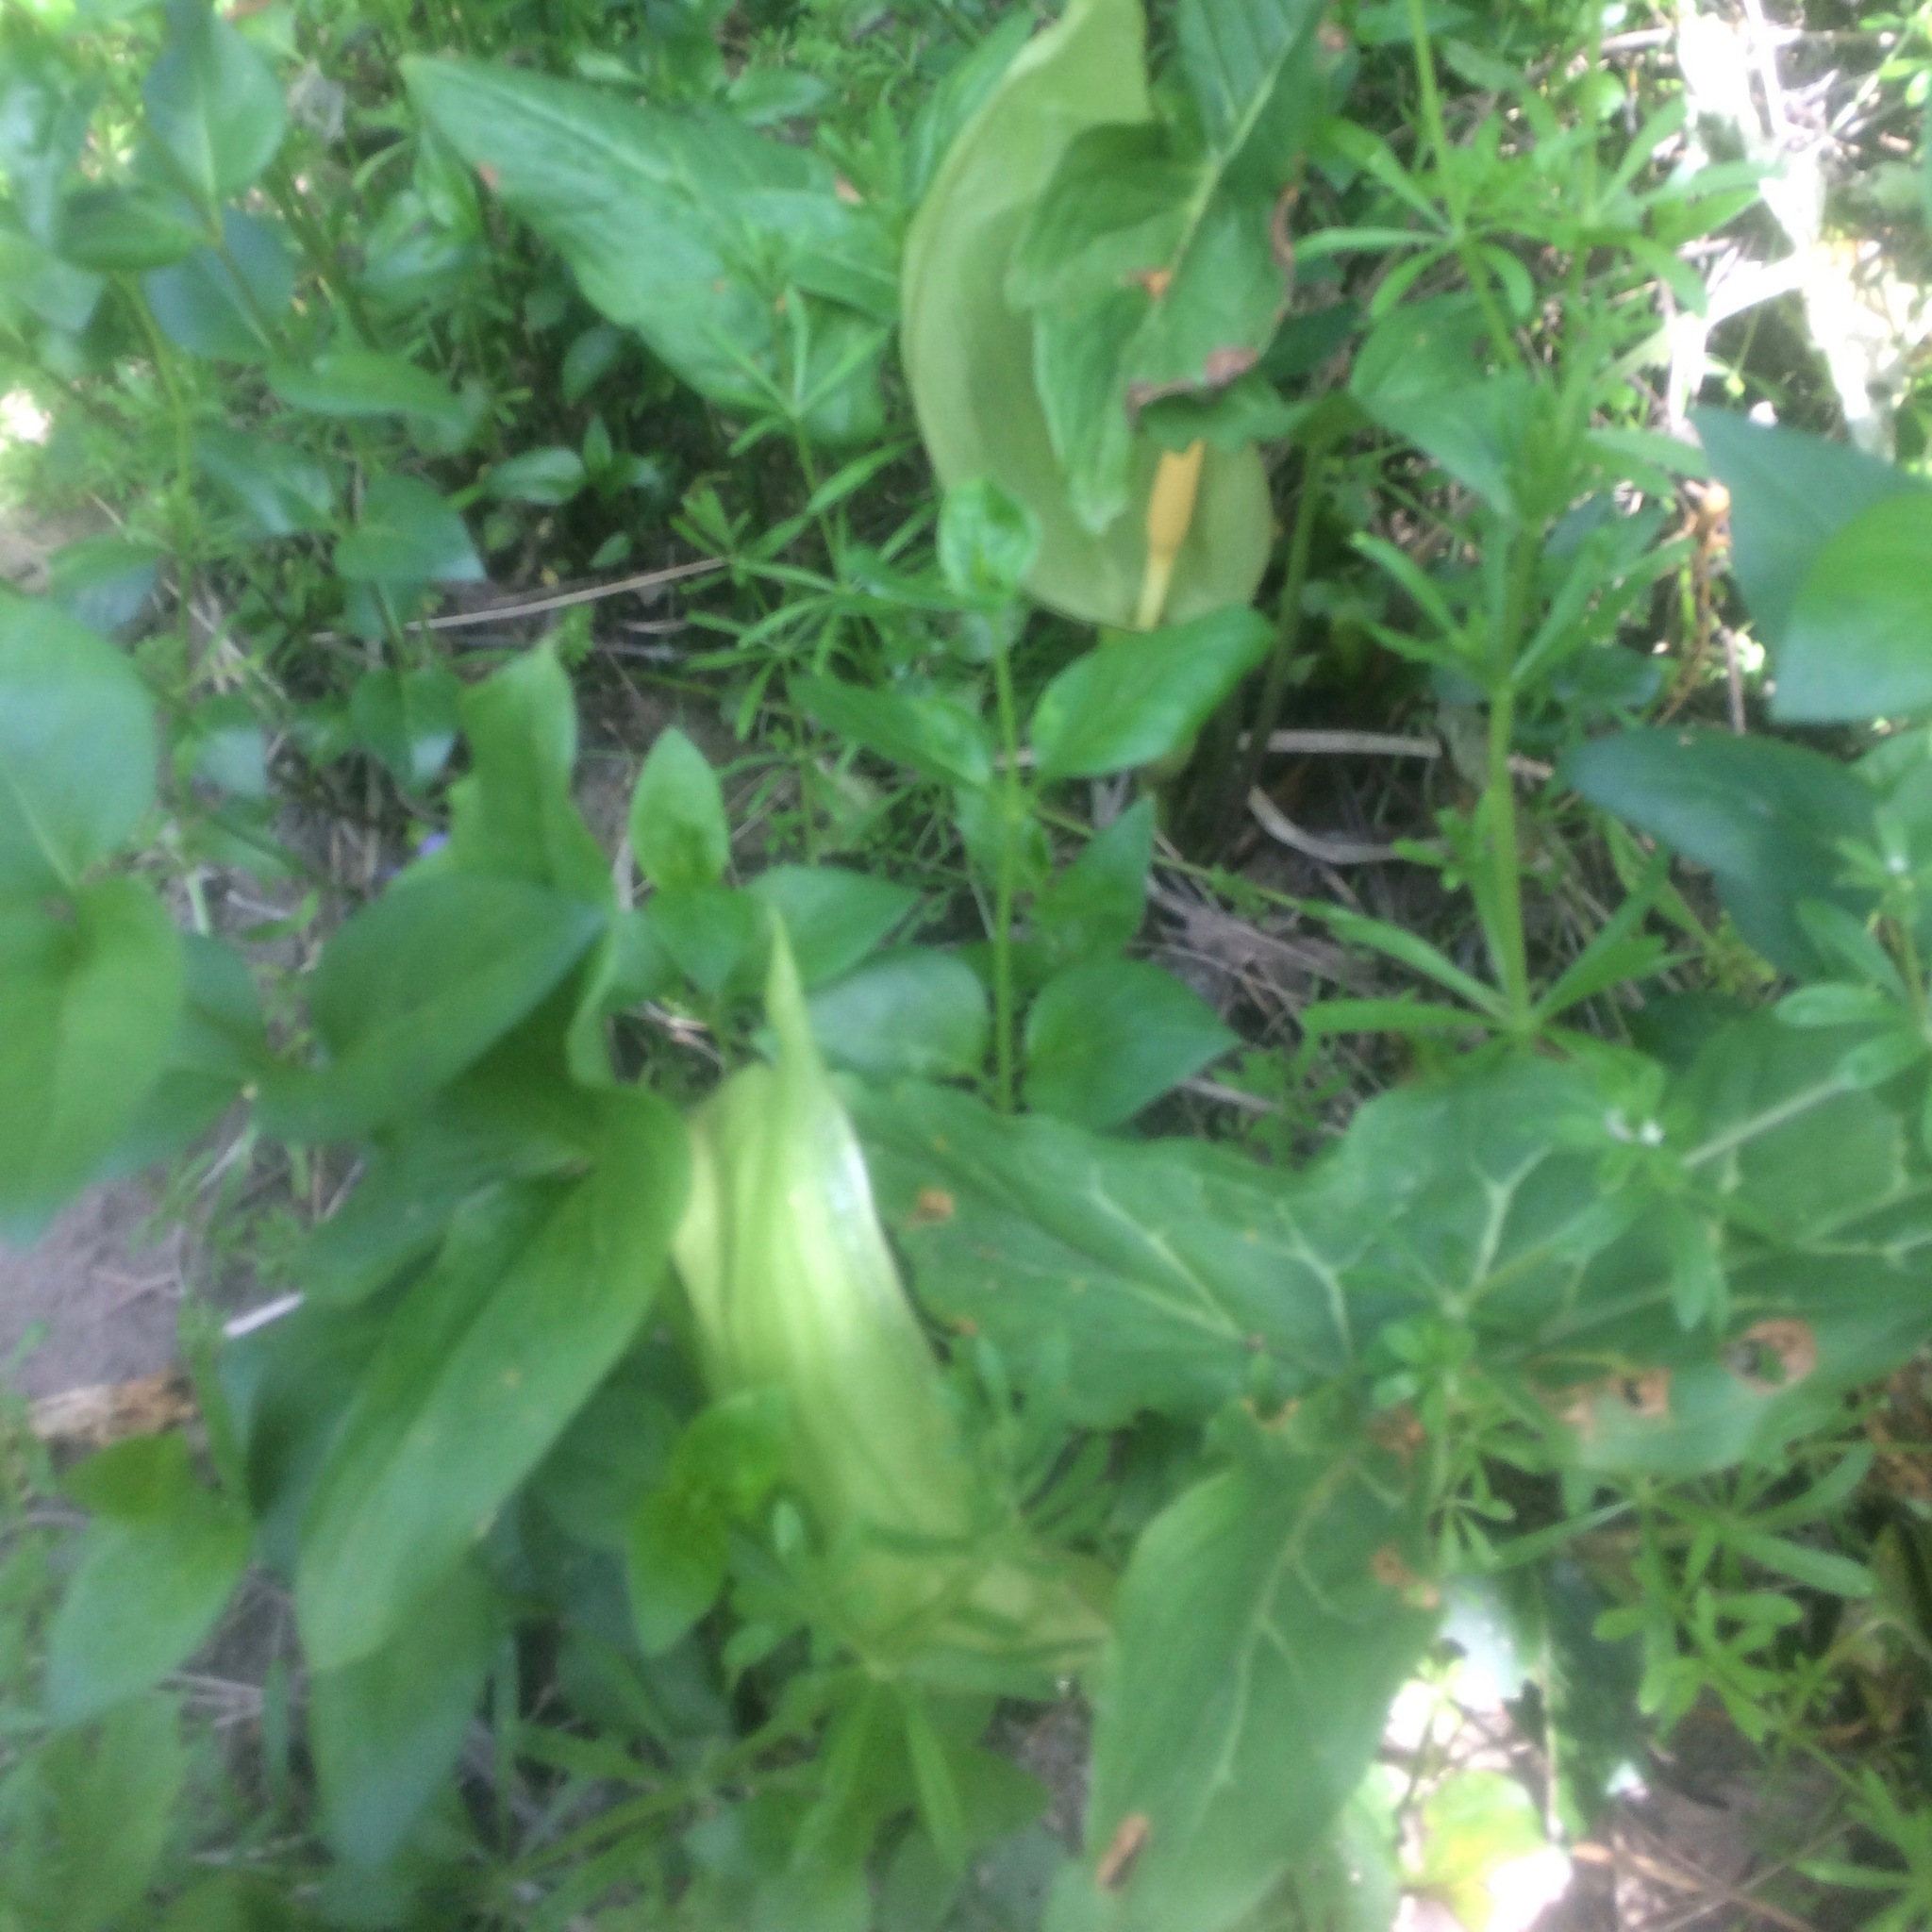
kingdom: Plantae
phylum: Tracheophyta
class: Liliopsida
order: Alismatales
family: Araceae
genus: Arum
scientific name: Arum italicum
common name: Italian lords-and-ladies
